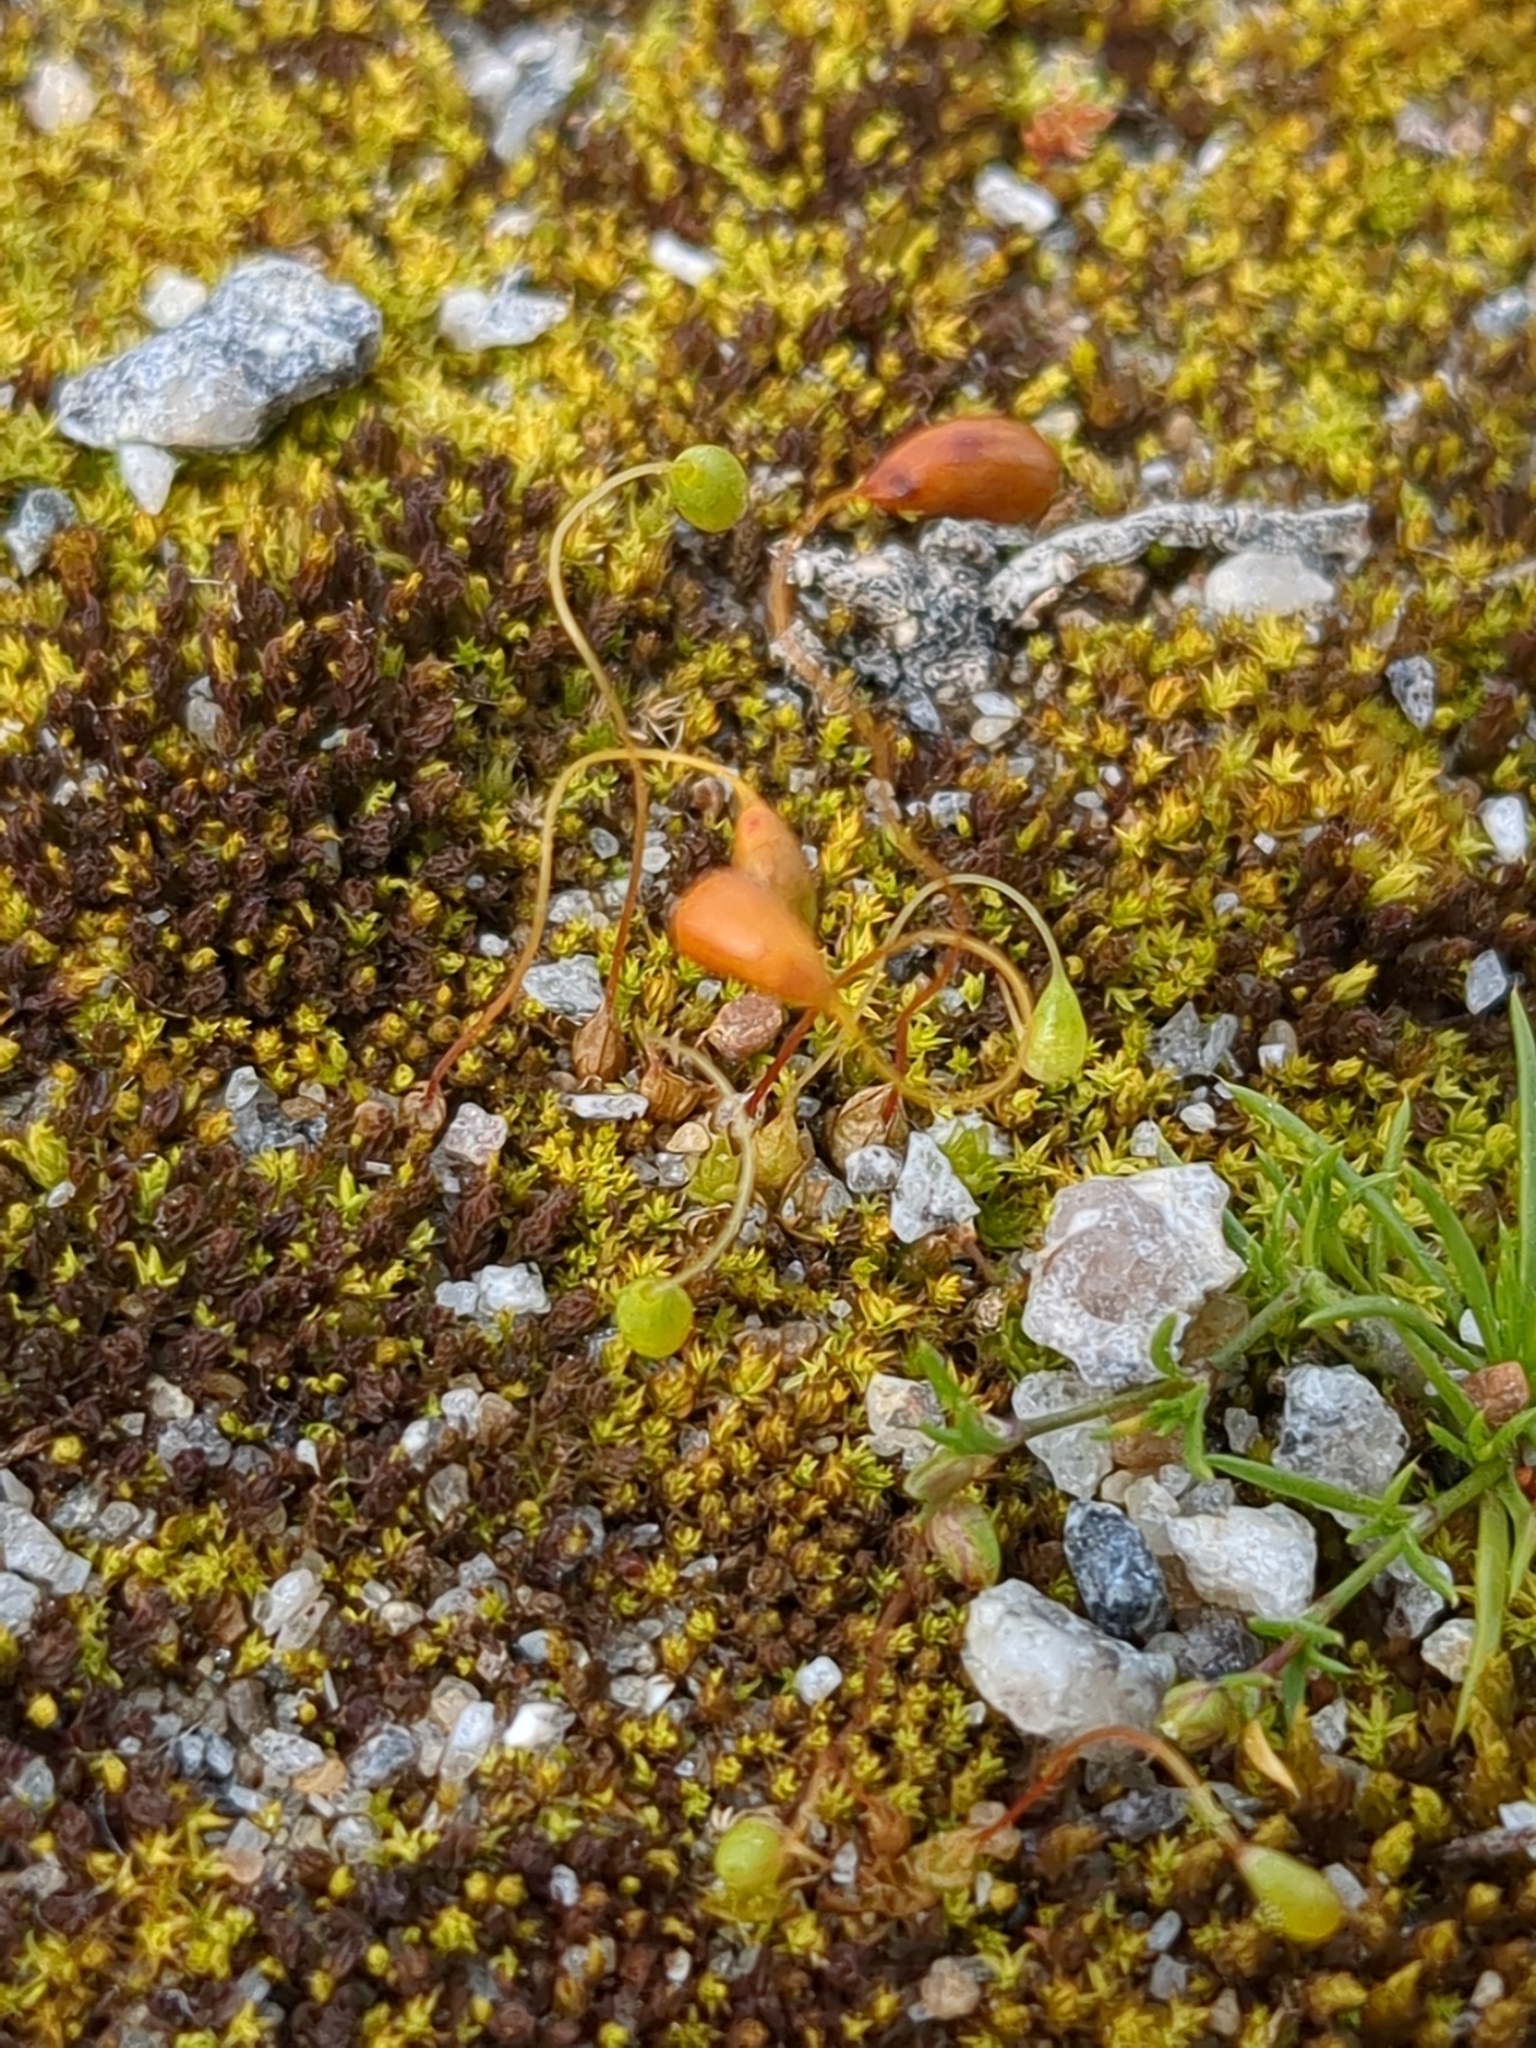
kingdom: Plantae
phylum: Bryophyta
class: Bryopsida
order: Funariales
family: Funariaceae
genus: Funaria
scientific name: Funaria hygrometrica
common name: Common cord moss
